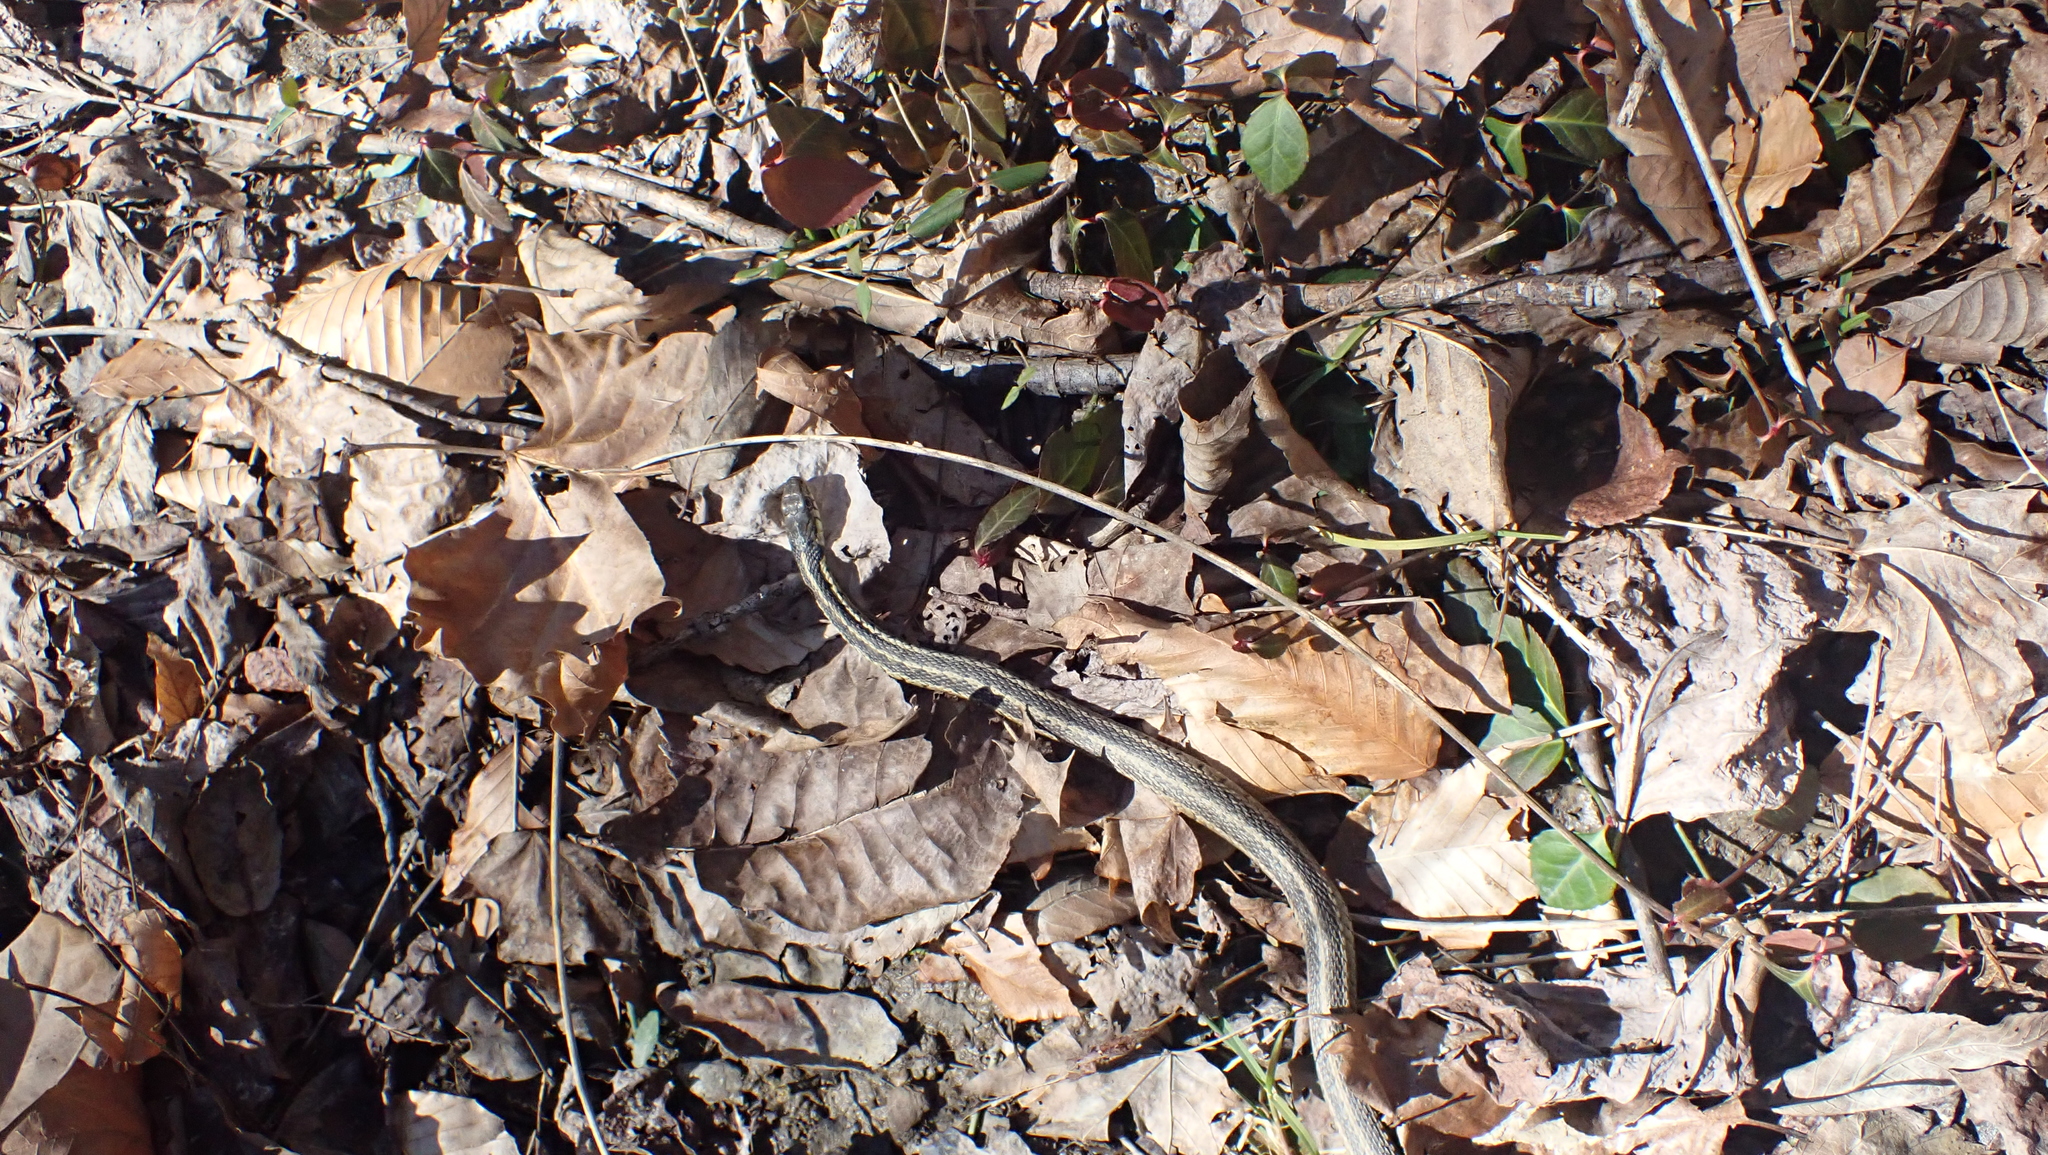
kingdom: Animalia
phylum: Chordata
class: Squamata
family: Colubridae
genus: Thamnophis
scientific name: Thamnophis sirtalis
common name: Common garter snake
